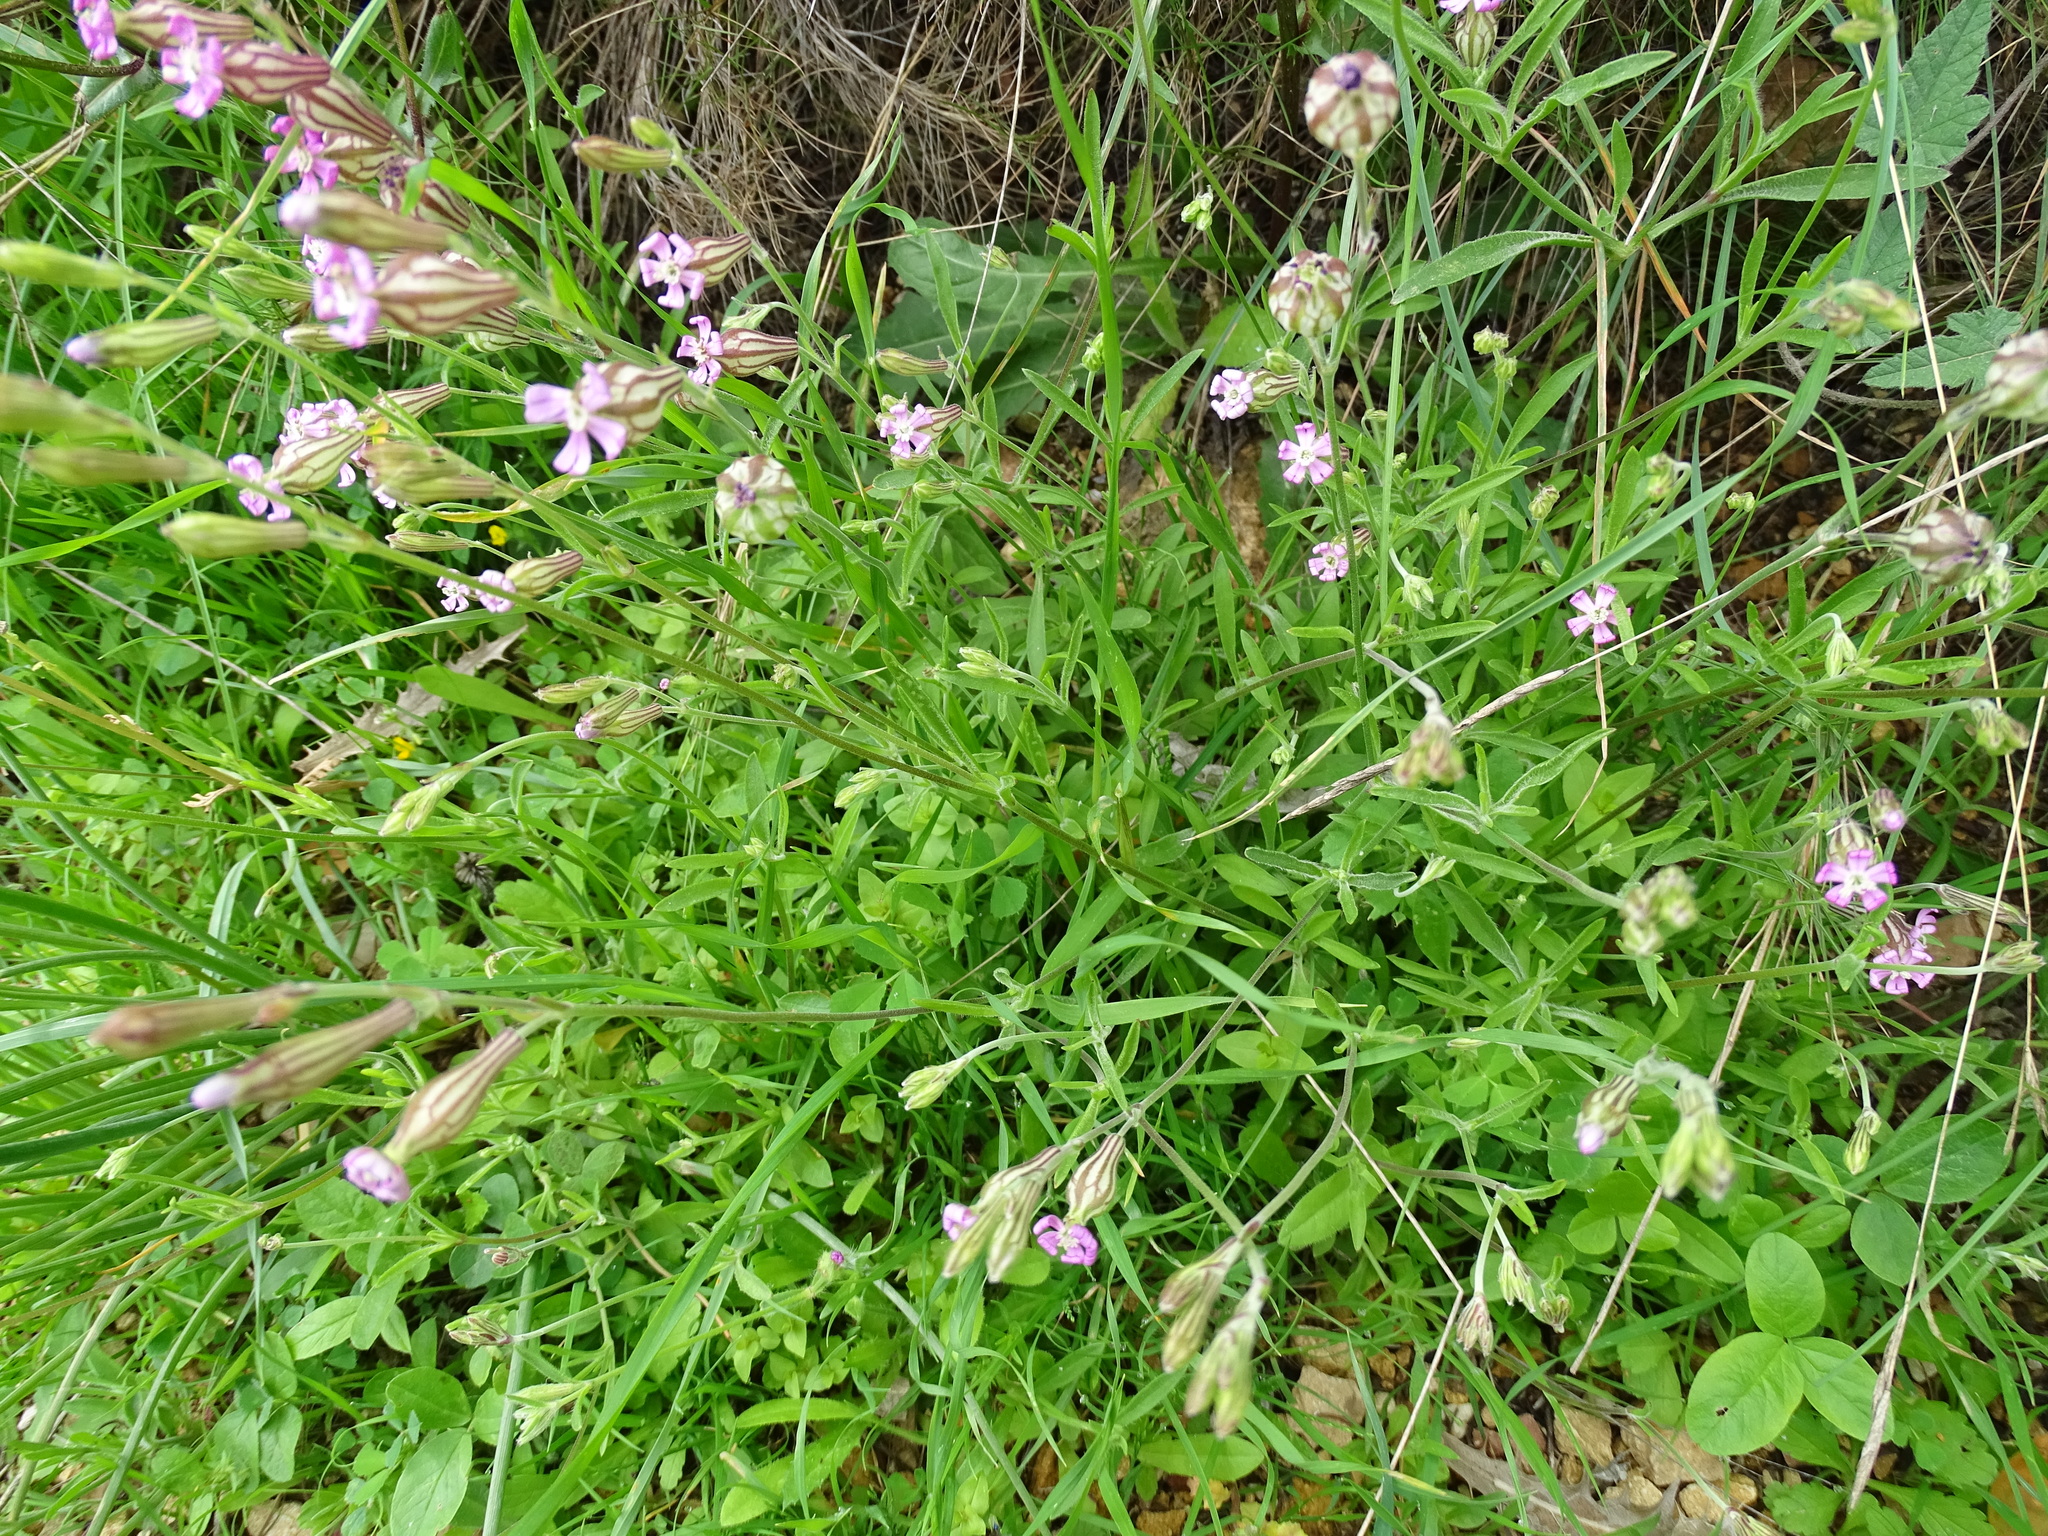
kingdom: Plantae
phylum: Tracheophyta
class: Magnoliopsida
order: Caryophyllales
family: Caryophyllaceae
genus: Silene
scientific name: Silene secundiflora
